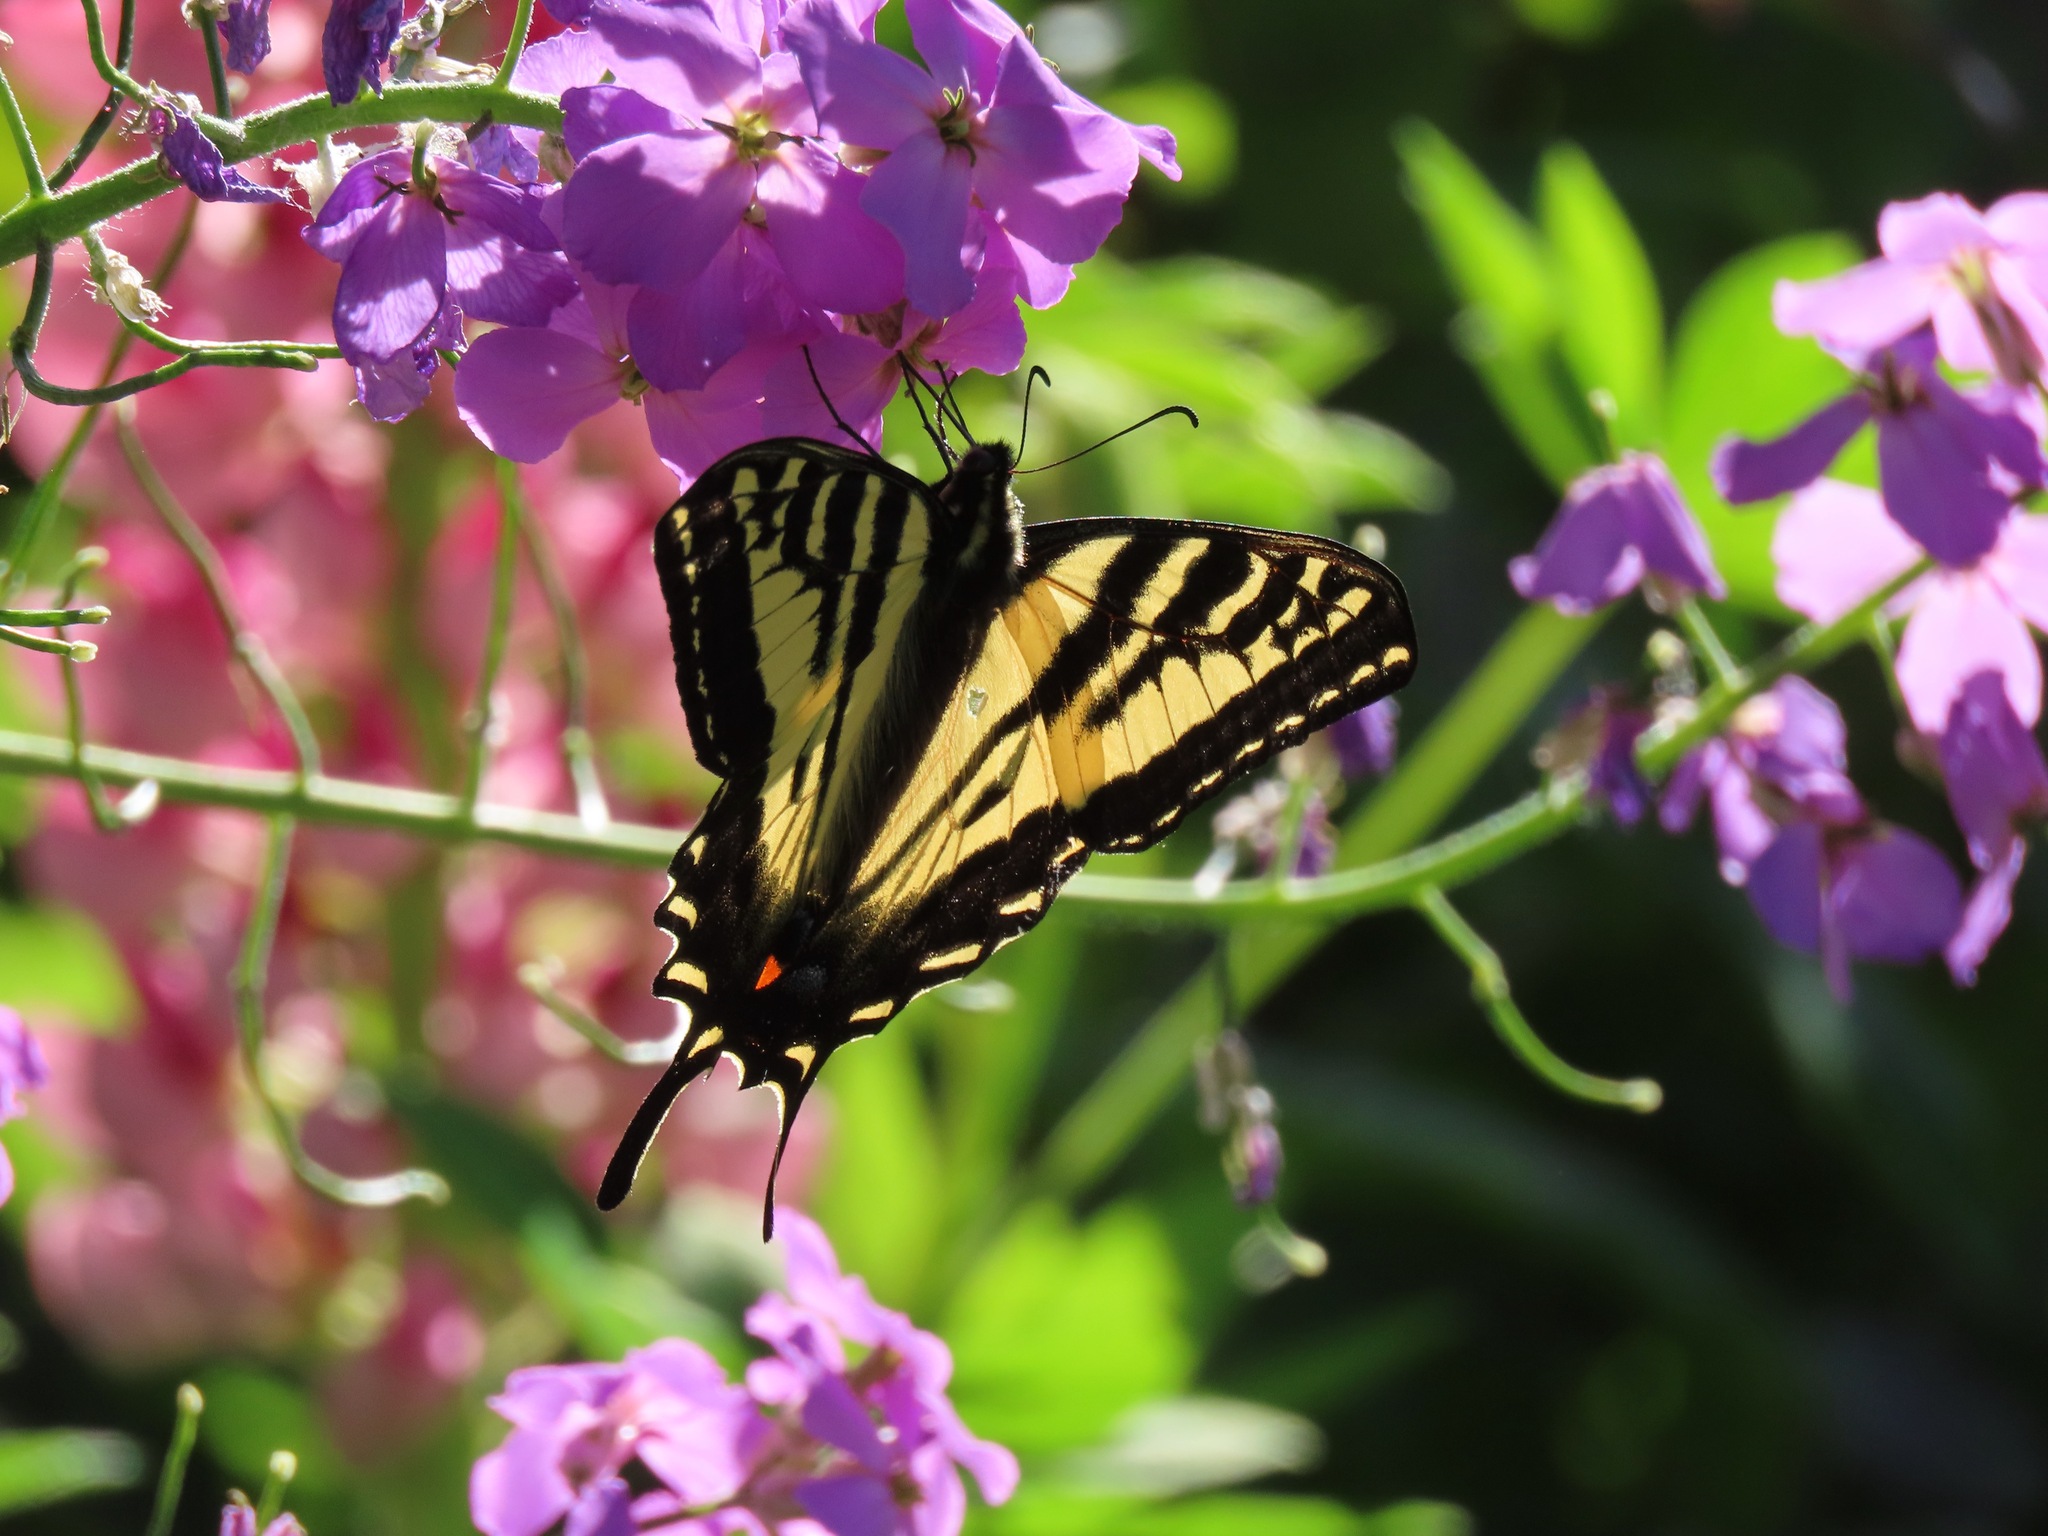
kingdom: Animalia
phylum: Arthropoda
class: Insecta
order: Lepidoptera
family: Papilionidae
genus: Papilio
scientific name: Papilio rutulus
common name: Western tiger swallowtail
